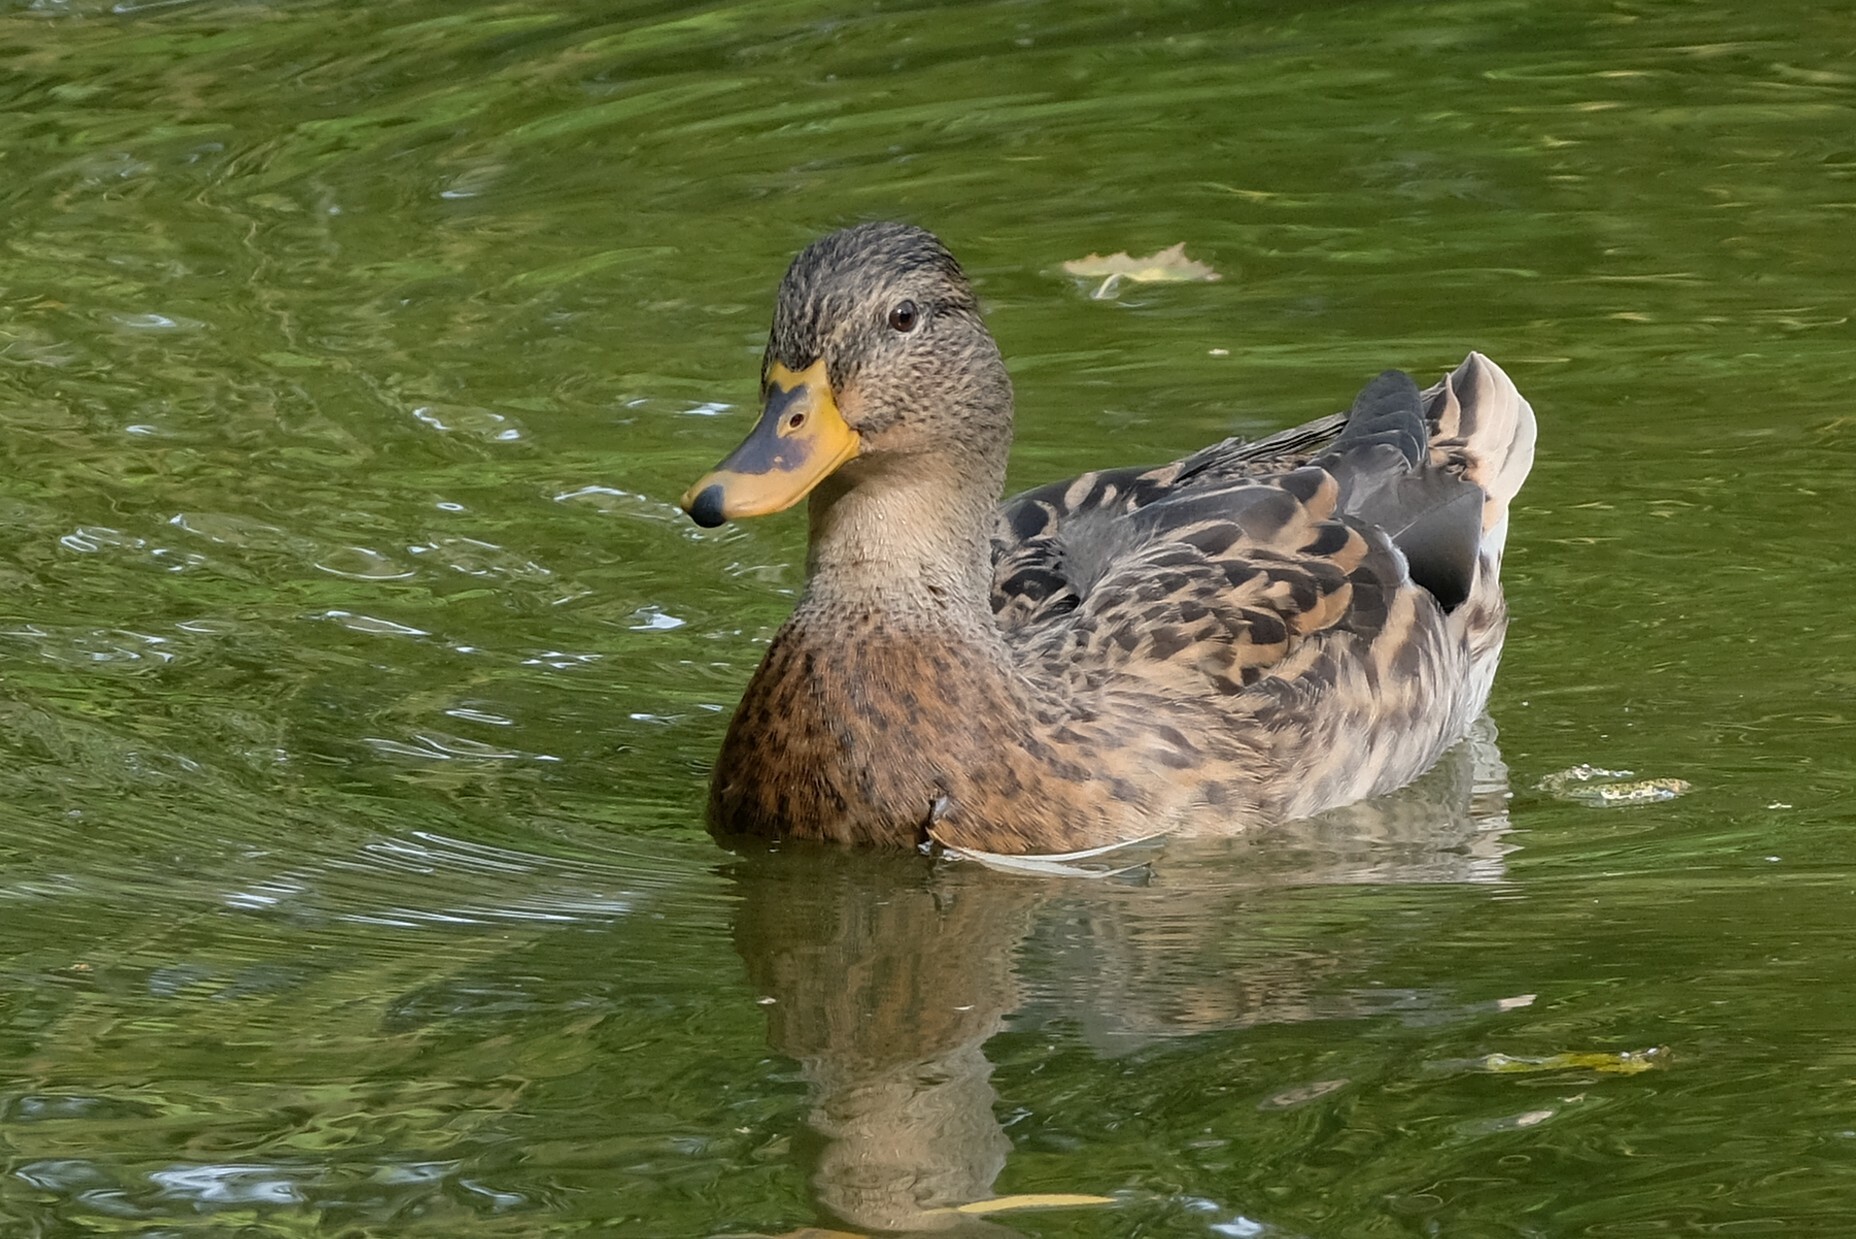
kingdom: Animalia
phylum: Chordata
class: Aves
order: Anseriformes
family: Anatidae
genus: Anas
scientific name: Anas platyrhynchos
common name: Mallard
